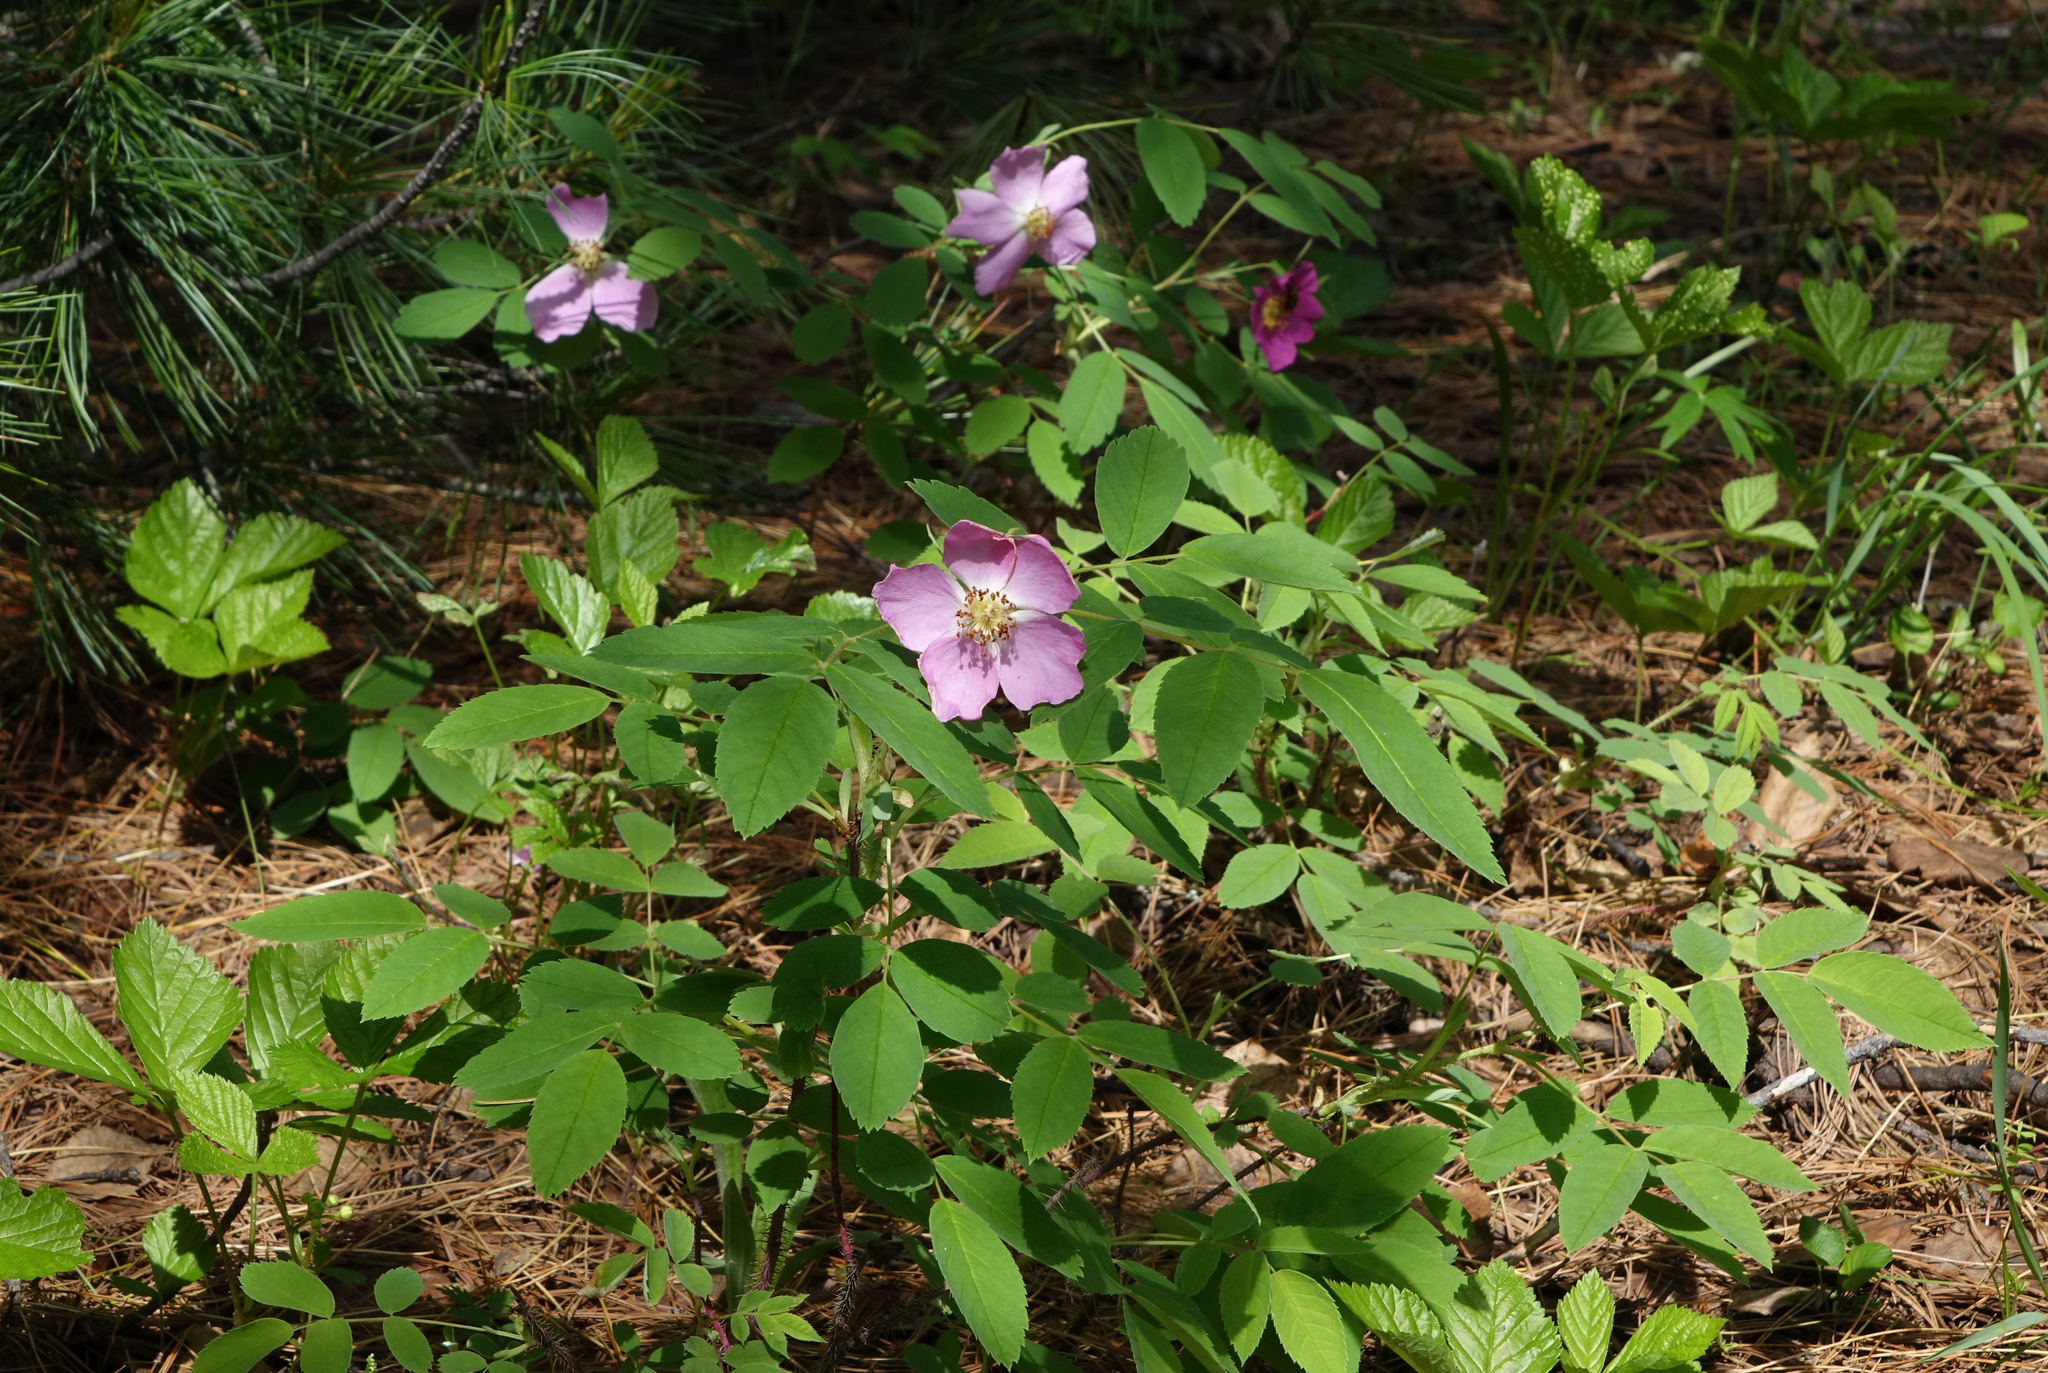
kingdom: Plantae
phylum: Tracheophyta
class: Magnoliopsida
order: Rosales
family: Rosaceae
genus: Rosa
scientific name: Rosa acicularis
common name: Prickly rose
